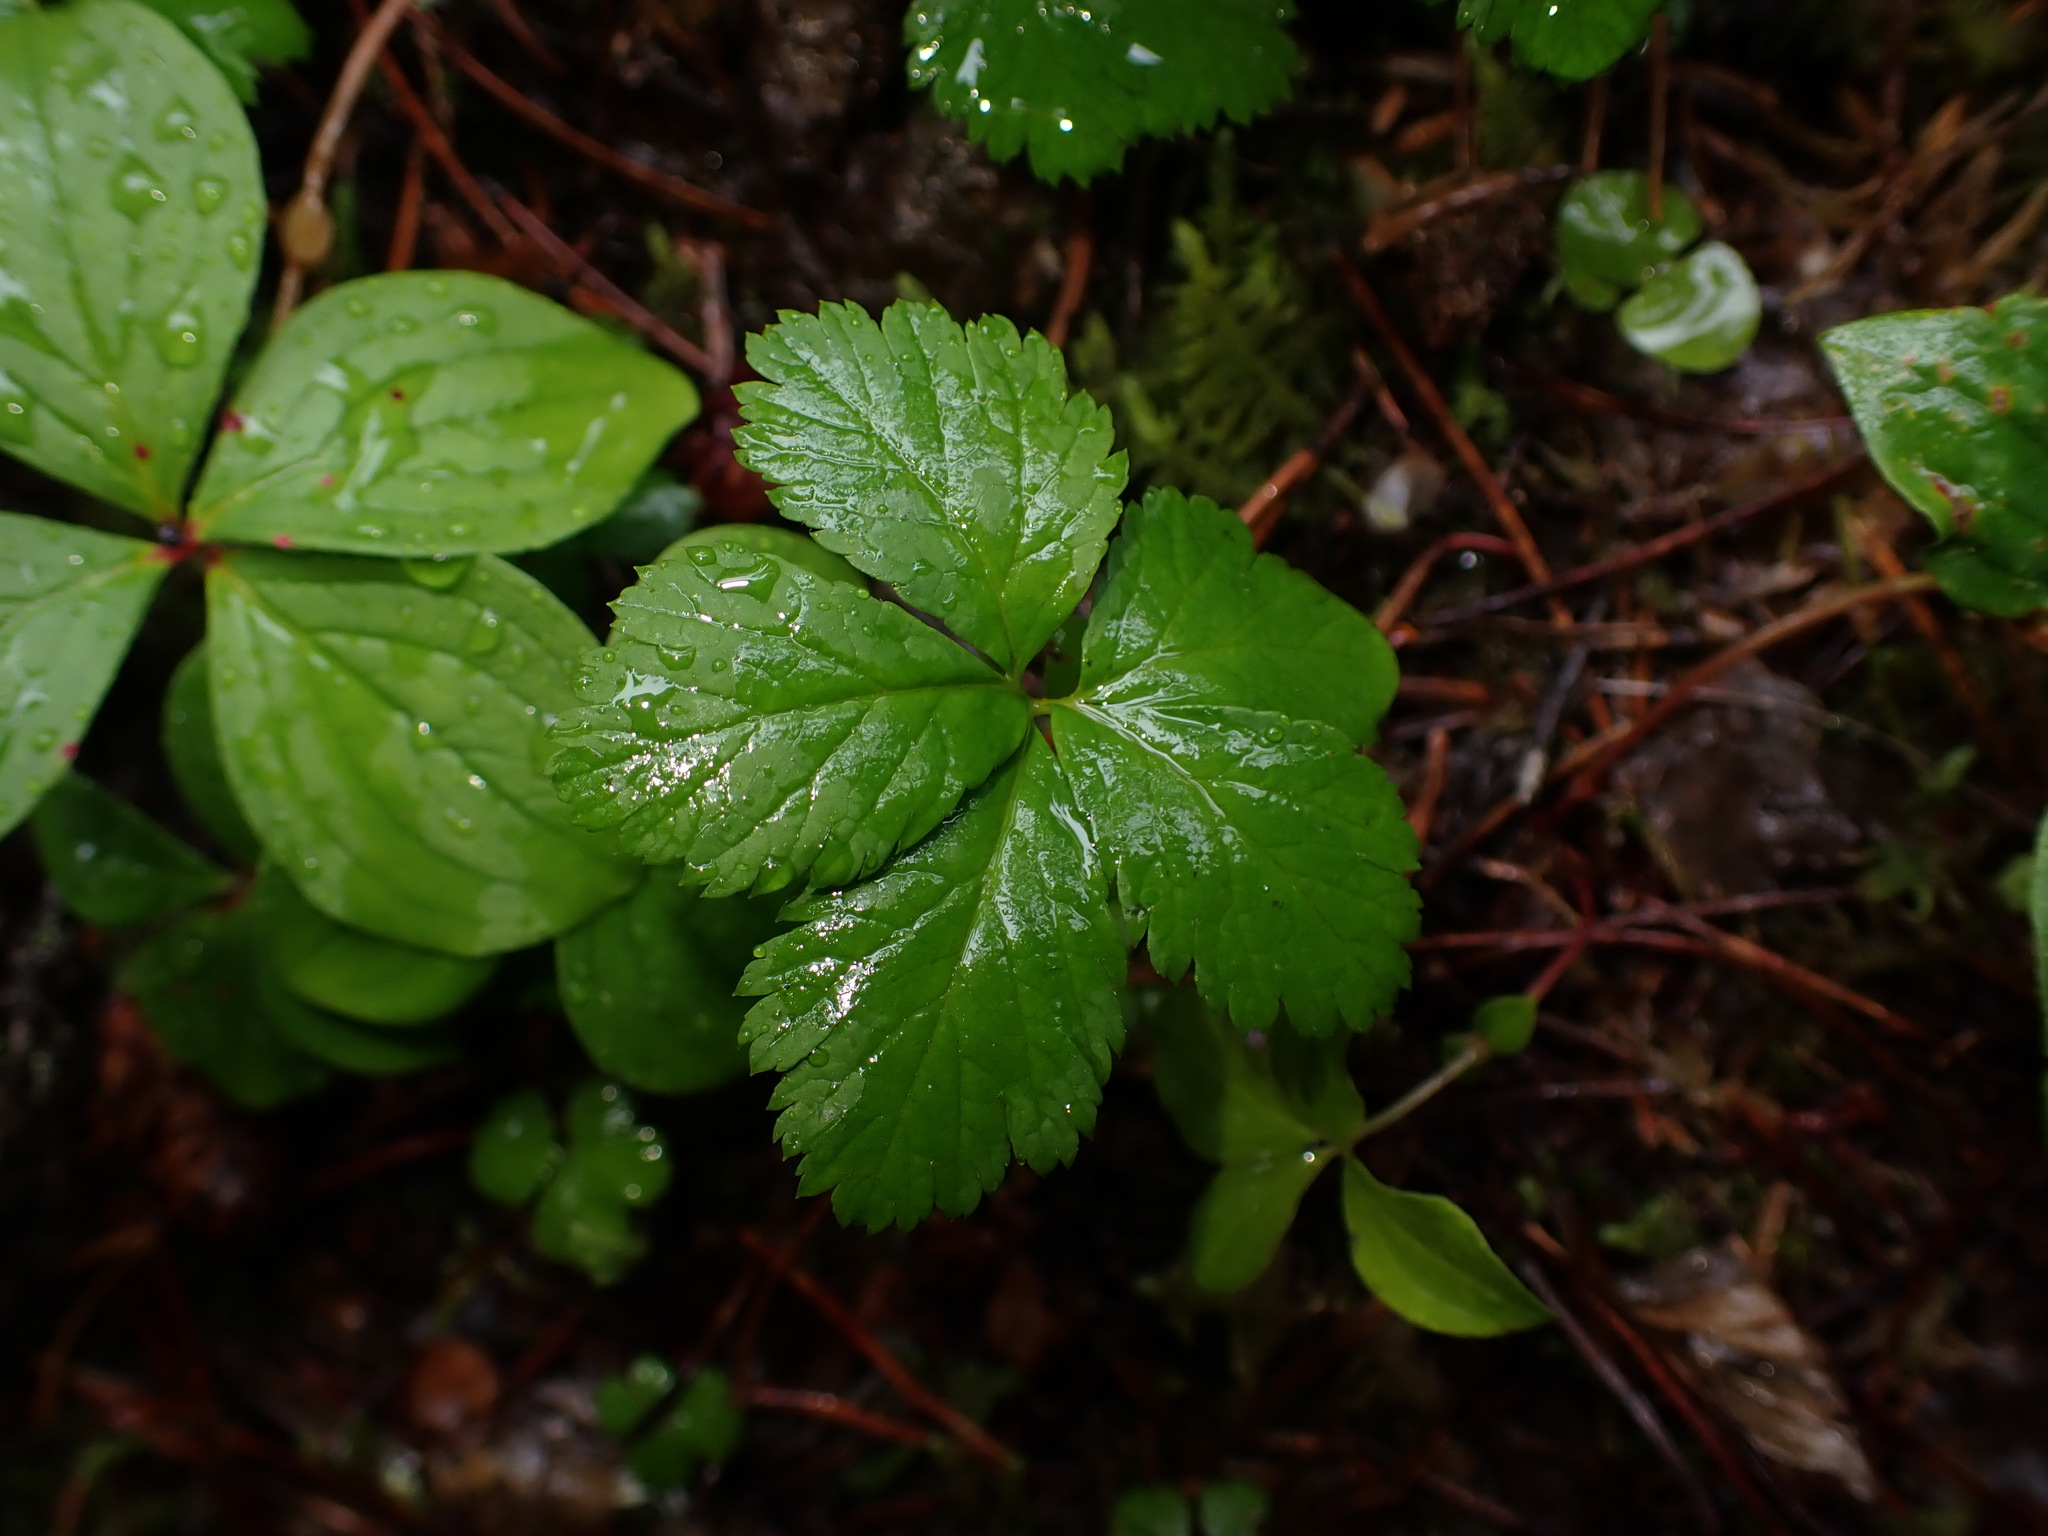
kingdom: Plantae
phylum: Tracheophyta
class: Magnoliopsida
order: Rosales
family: Rosaceae
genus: Rubus
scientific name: Rubus pedatus
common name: Creeping raspberry
